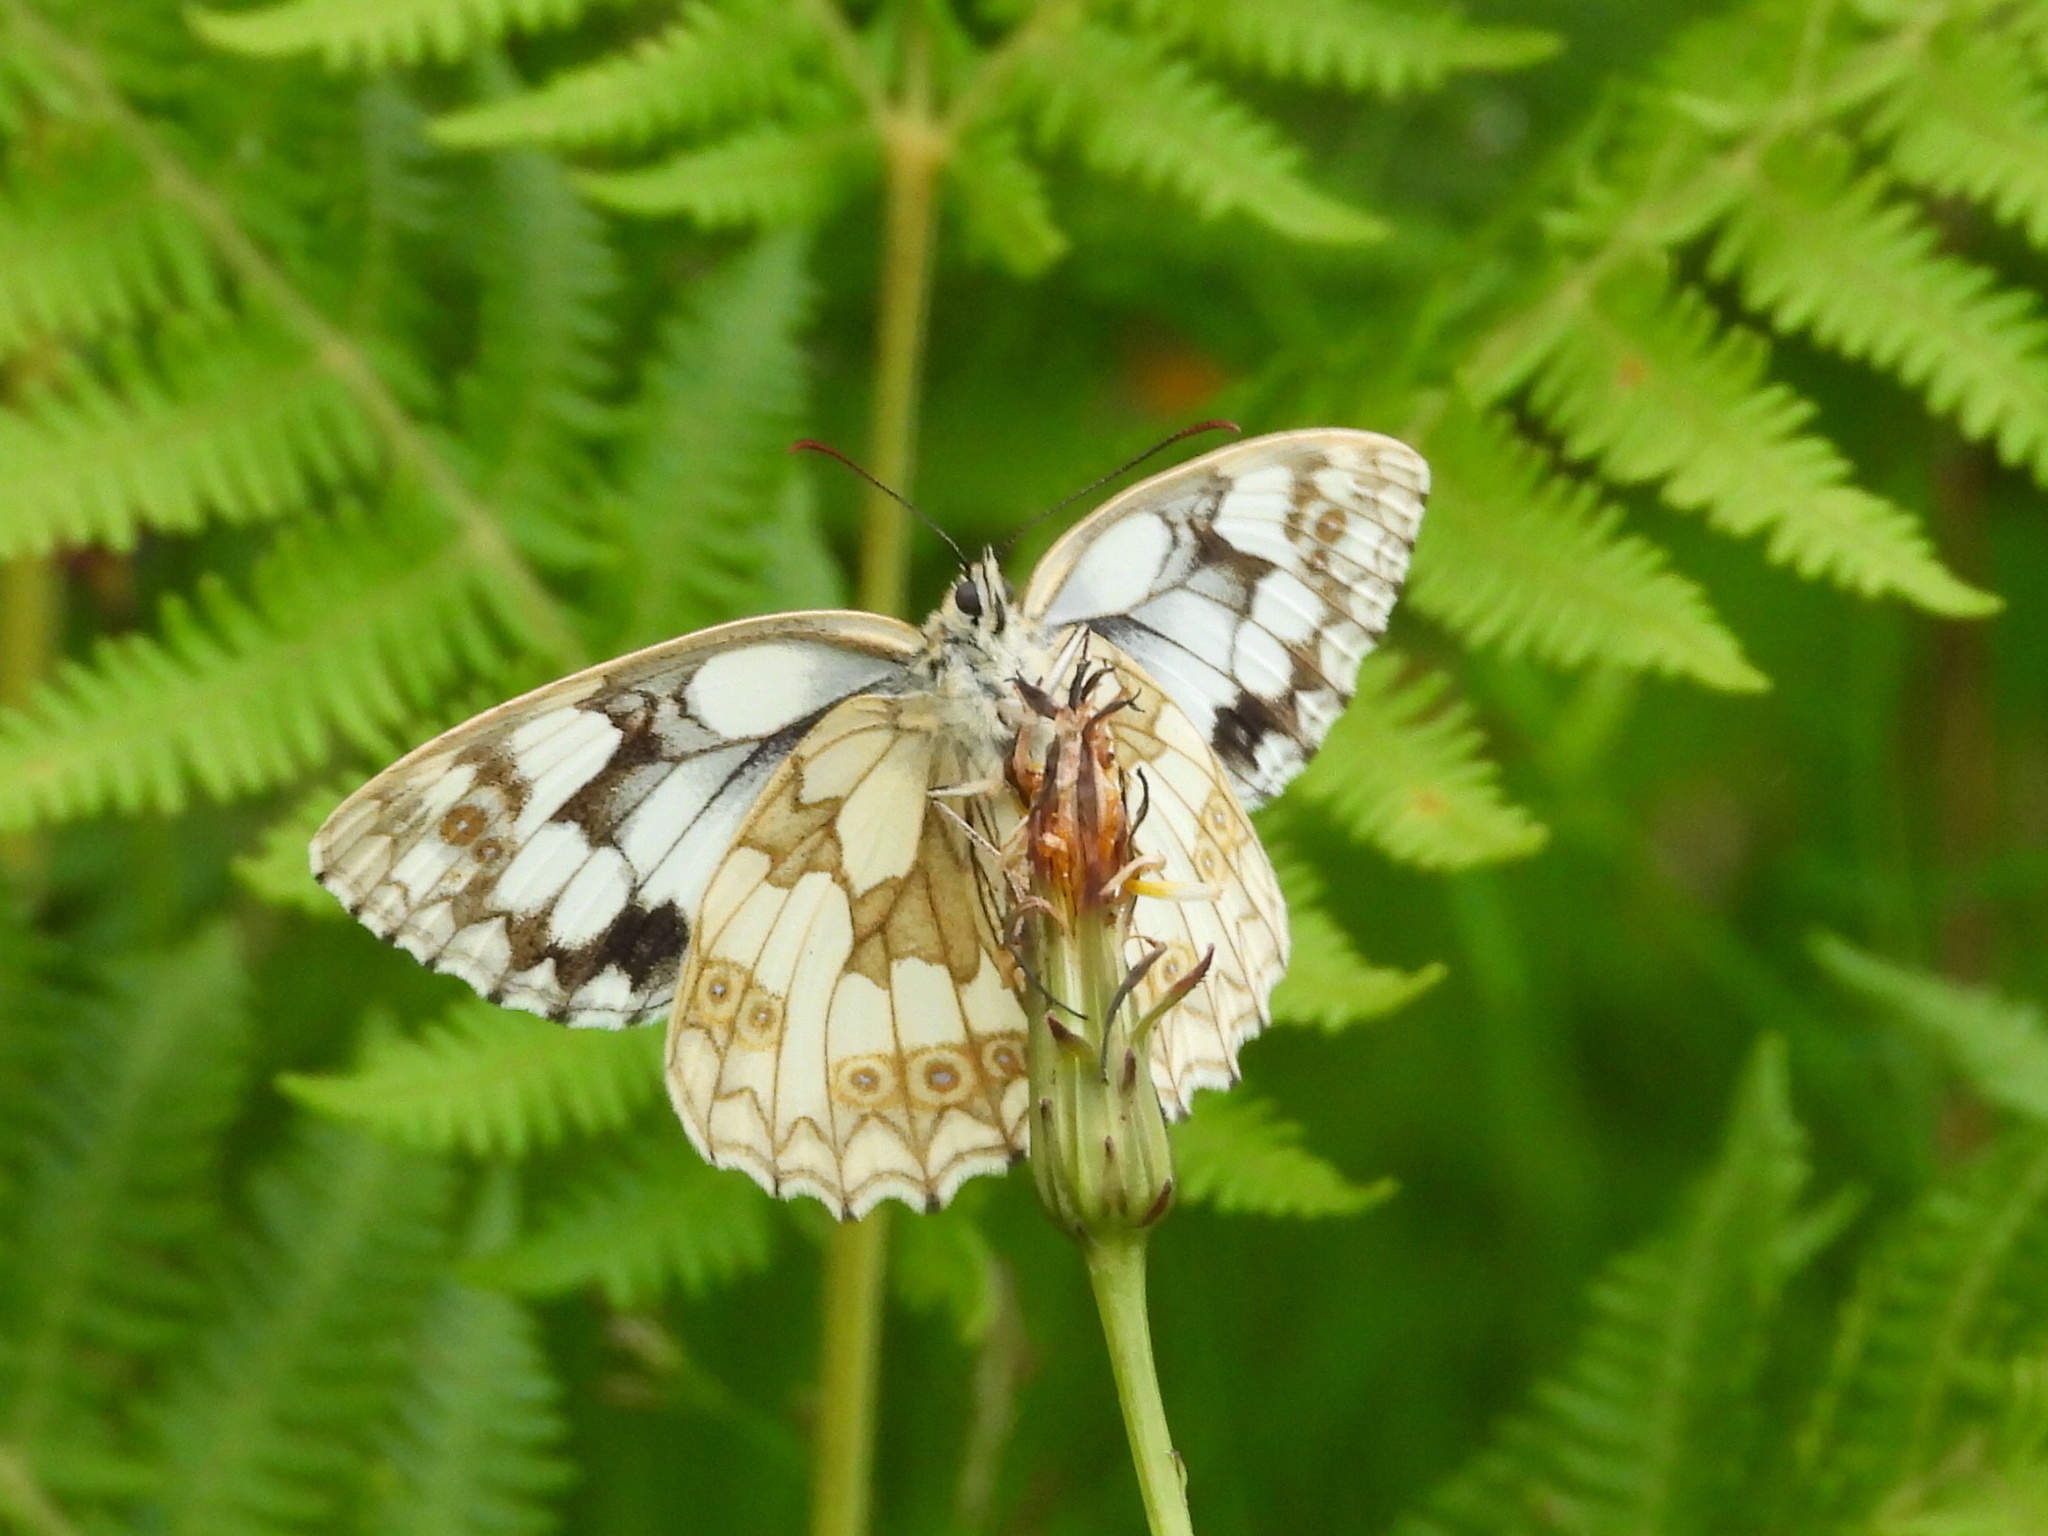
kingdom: Animalia
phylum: Arthropoda
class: Insecta
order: Lepidoptera
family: Nymphalidae
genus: Melanargia
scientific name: Melanargia galathea
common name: Marbled white
